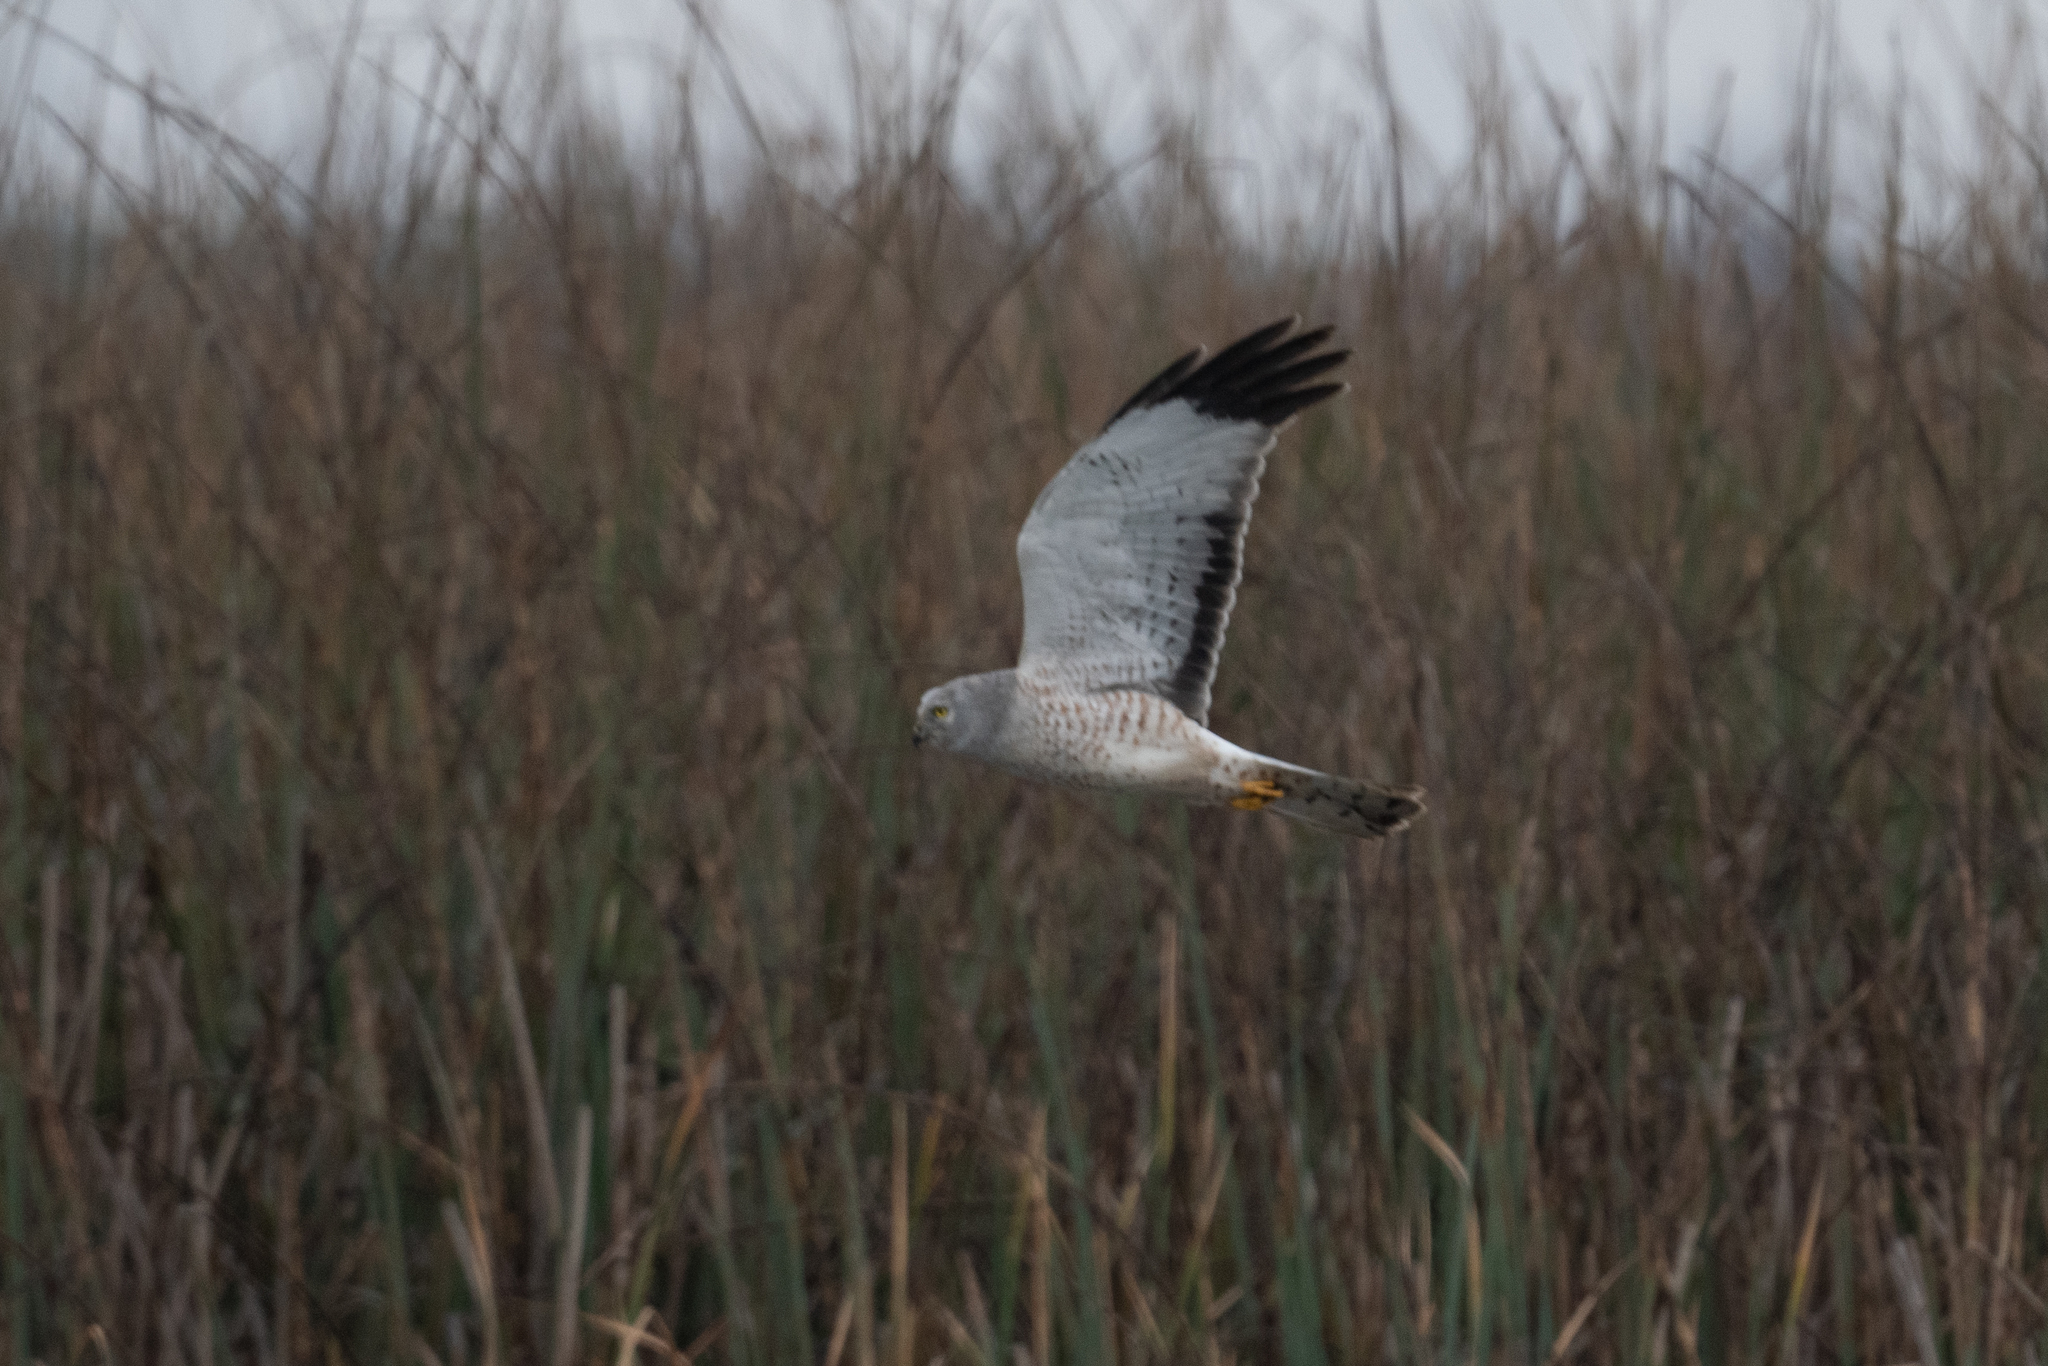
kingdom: Animalia
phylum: Chordata
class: Aves
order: Accipitriformes
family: Accipitridae
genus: Circus
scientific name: Circus cyaneus
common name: Hen harrier
